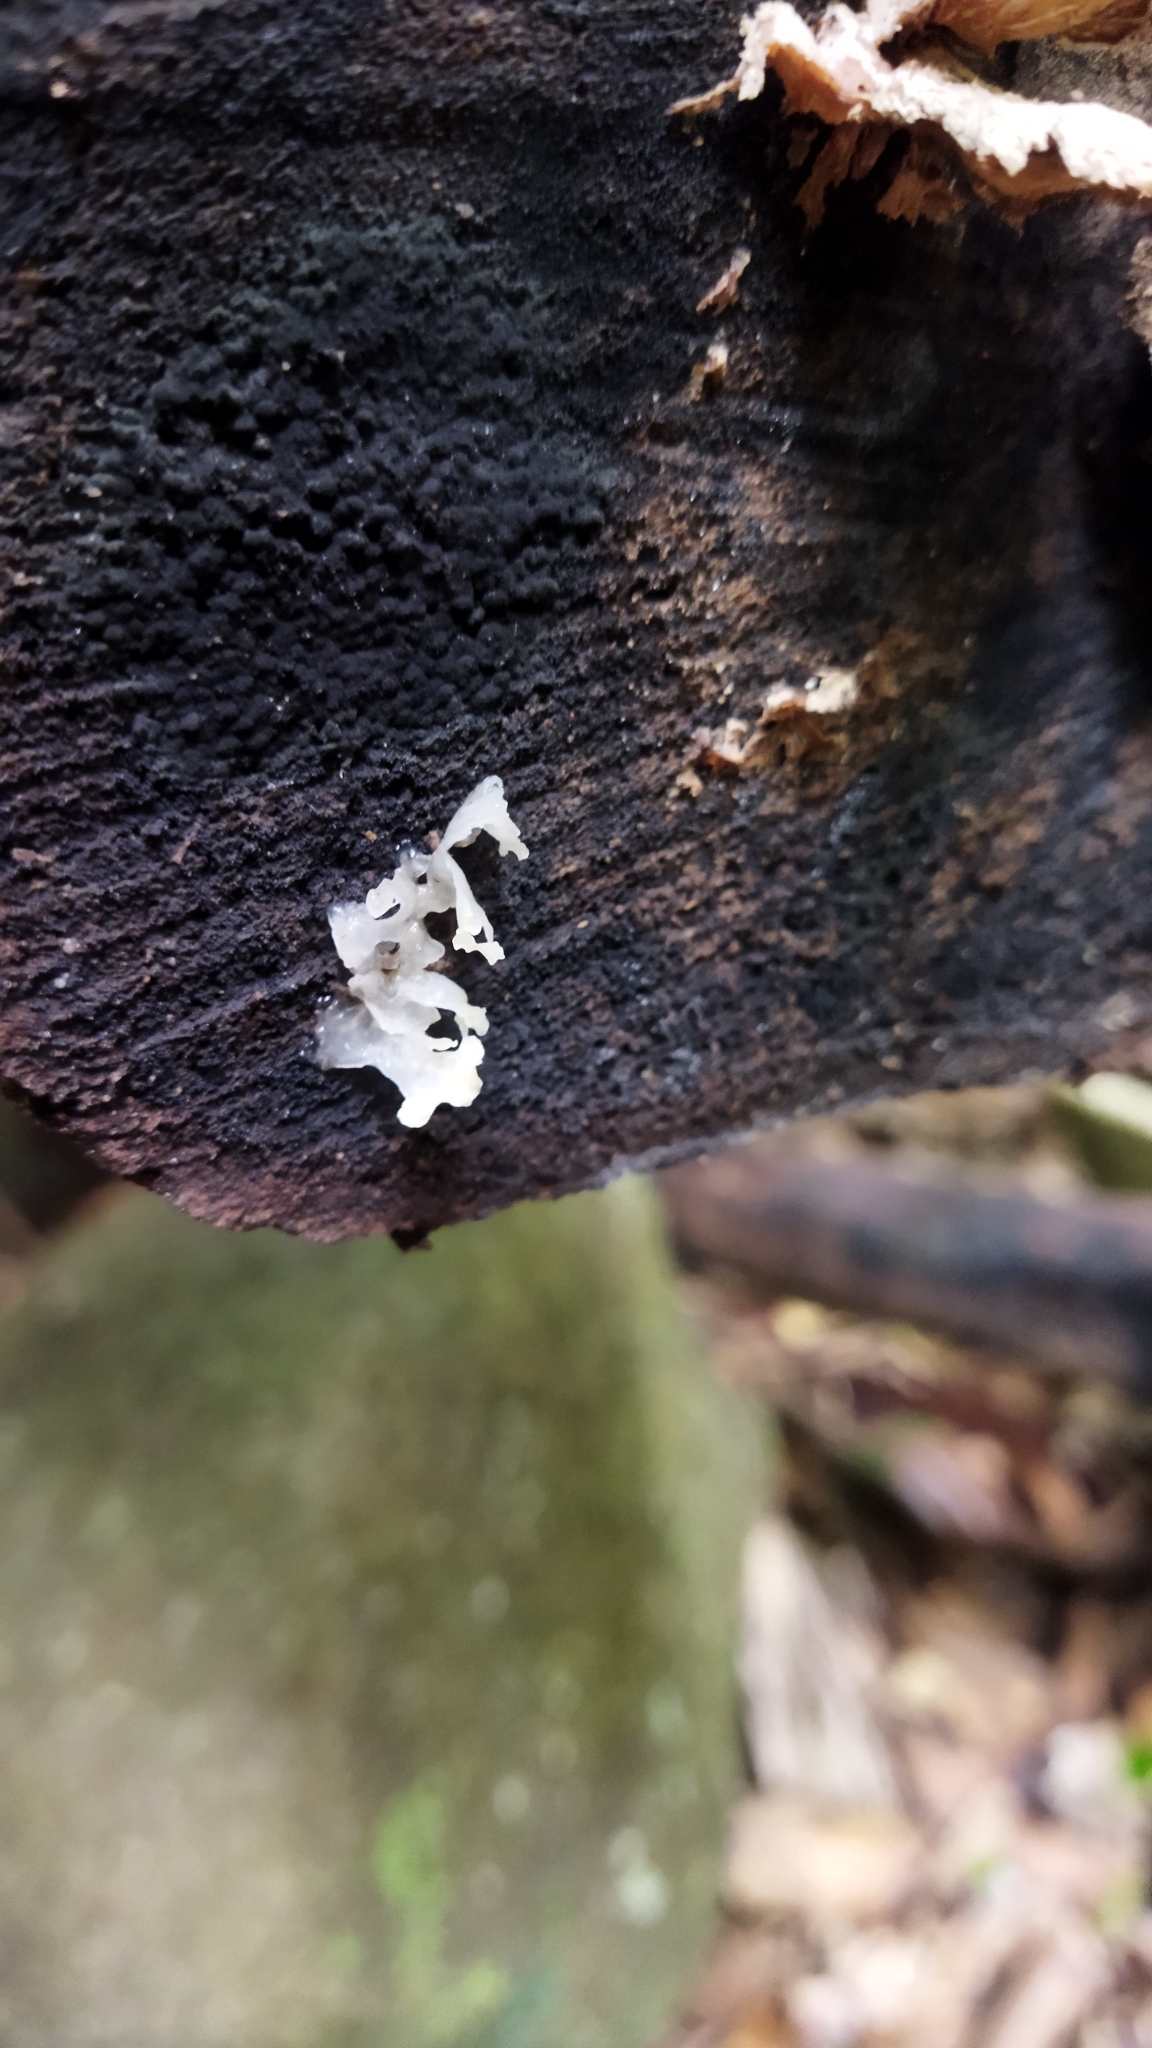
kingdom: Fungi
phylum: Basidiomycota
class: Tremellomycetes
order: Tremellales
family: Tremellaceae
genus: Tremella
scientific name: Tremella fuciformis
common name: Snow fungus
